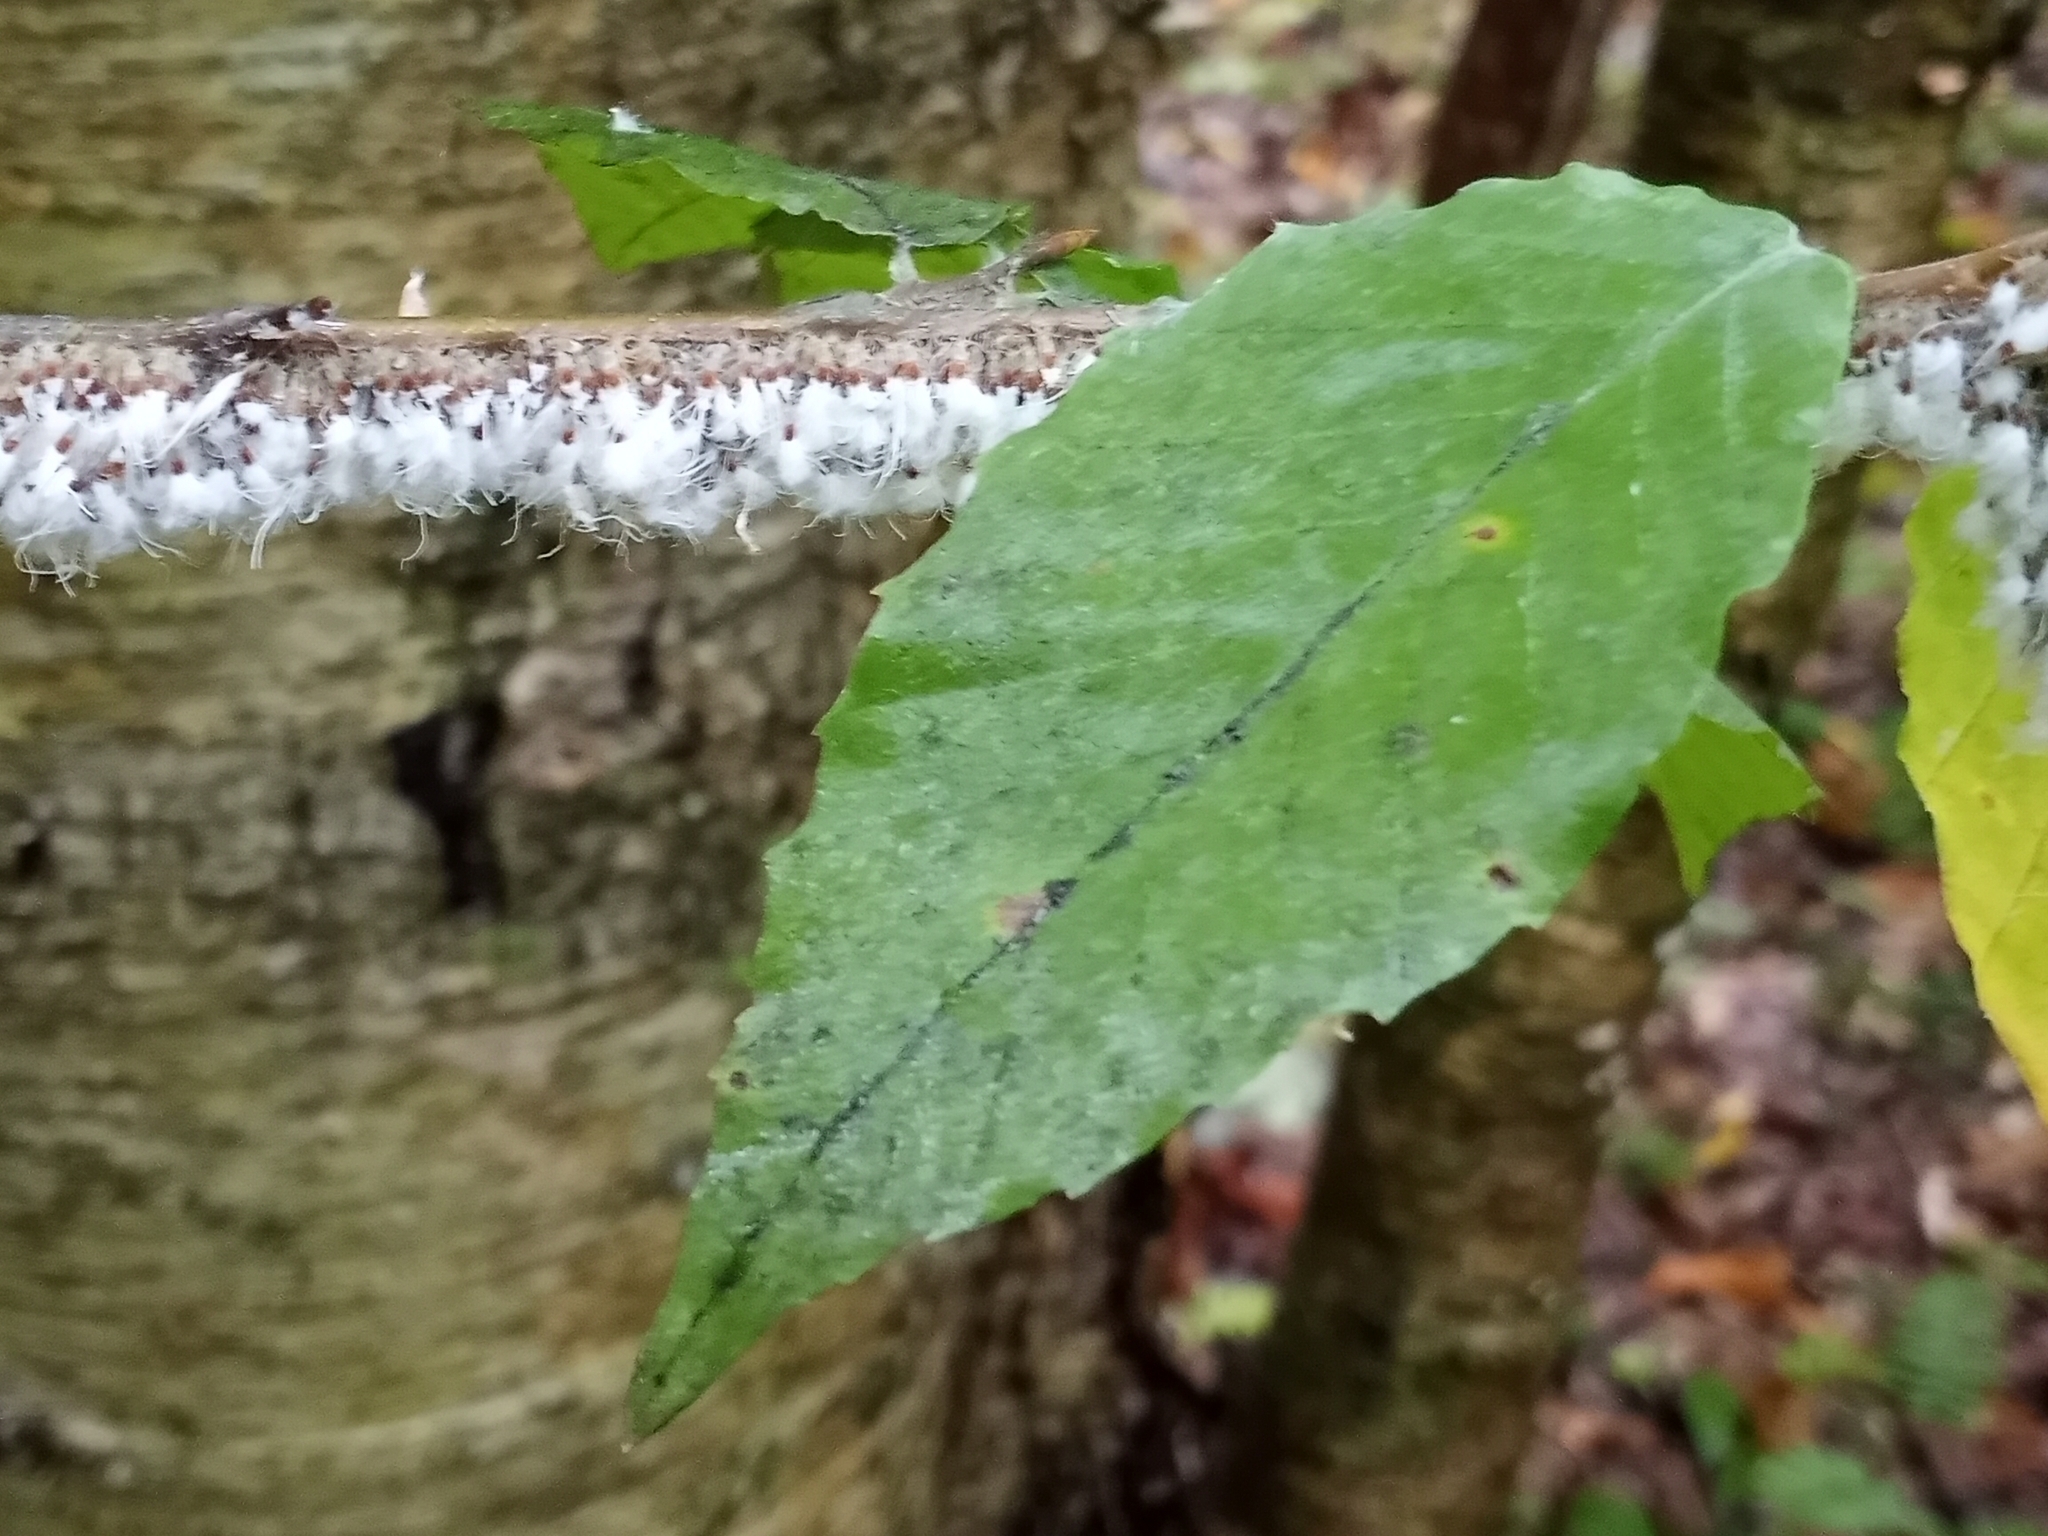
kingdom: Animalia
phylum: Arthropoda
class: Insecta
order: Hemiptera
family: Aphididae
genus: Grylloprociphilus
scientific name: Grylloprociphilus imbricator
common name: Beech blight aphid
